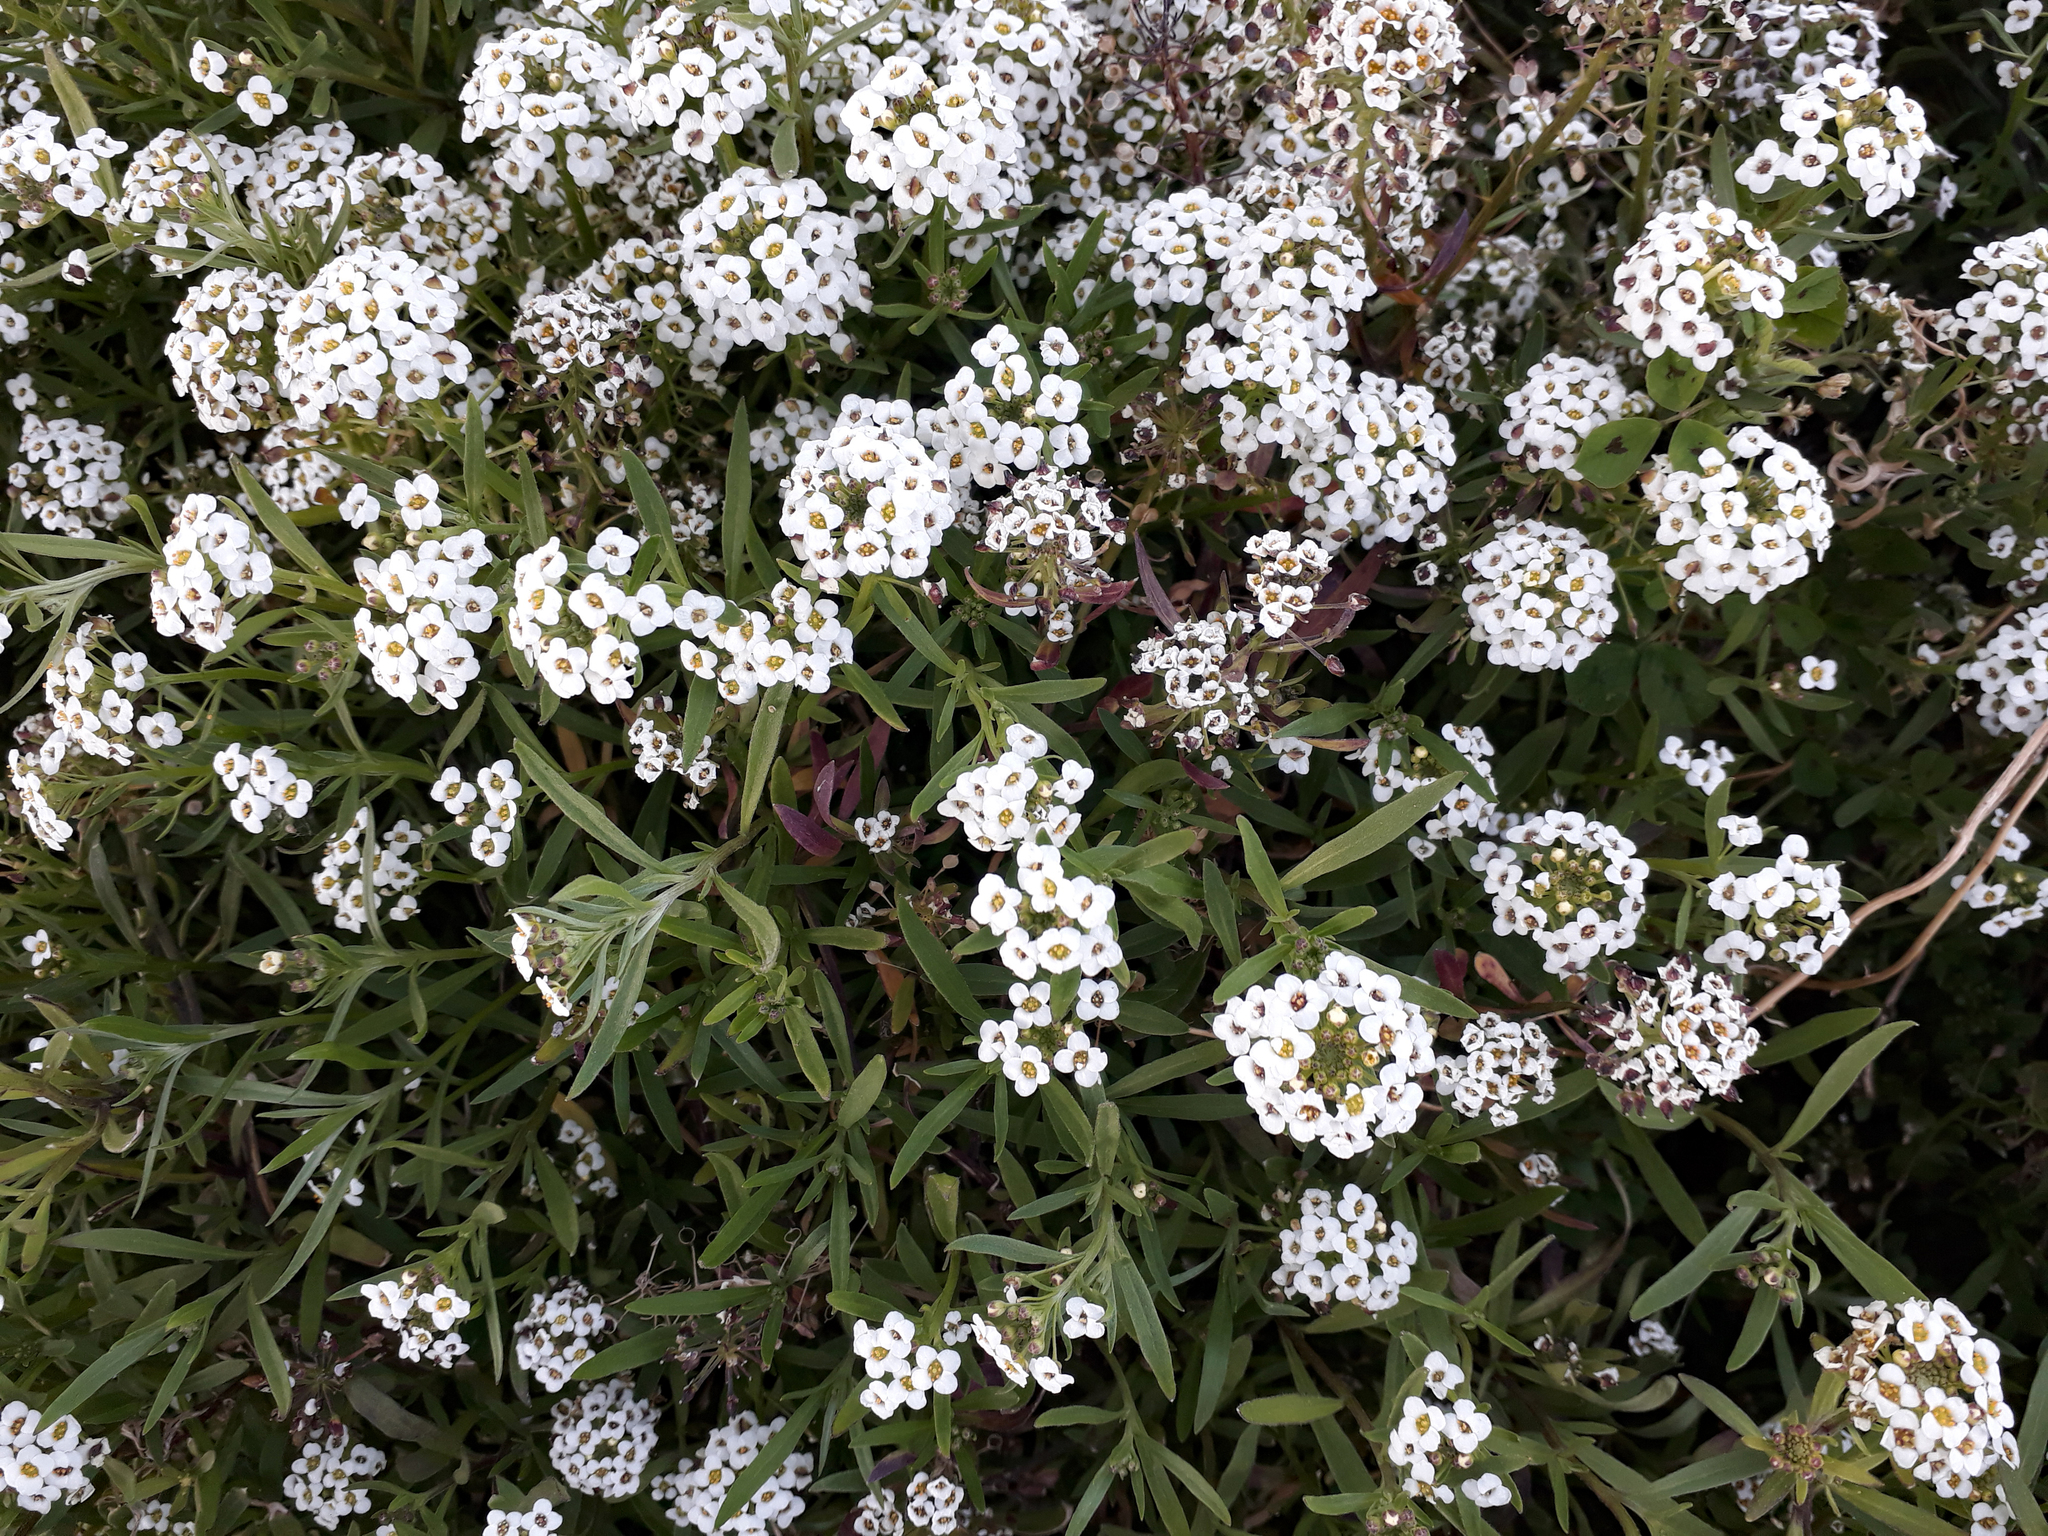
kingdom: Plantae
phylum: Tracheophyta
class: Magnoliopsida
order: Brassicales
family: Brassicaceae
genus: Lobularia
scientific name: Lobularia maritima
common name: Sweet alison
